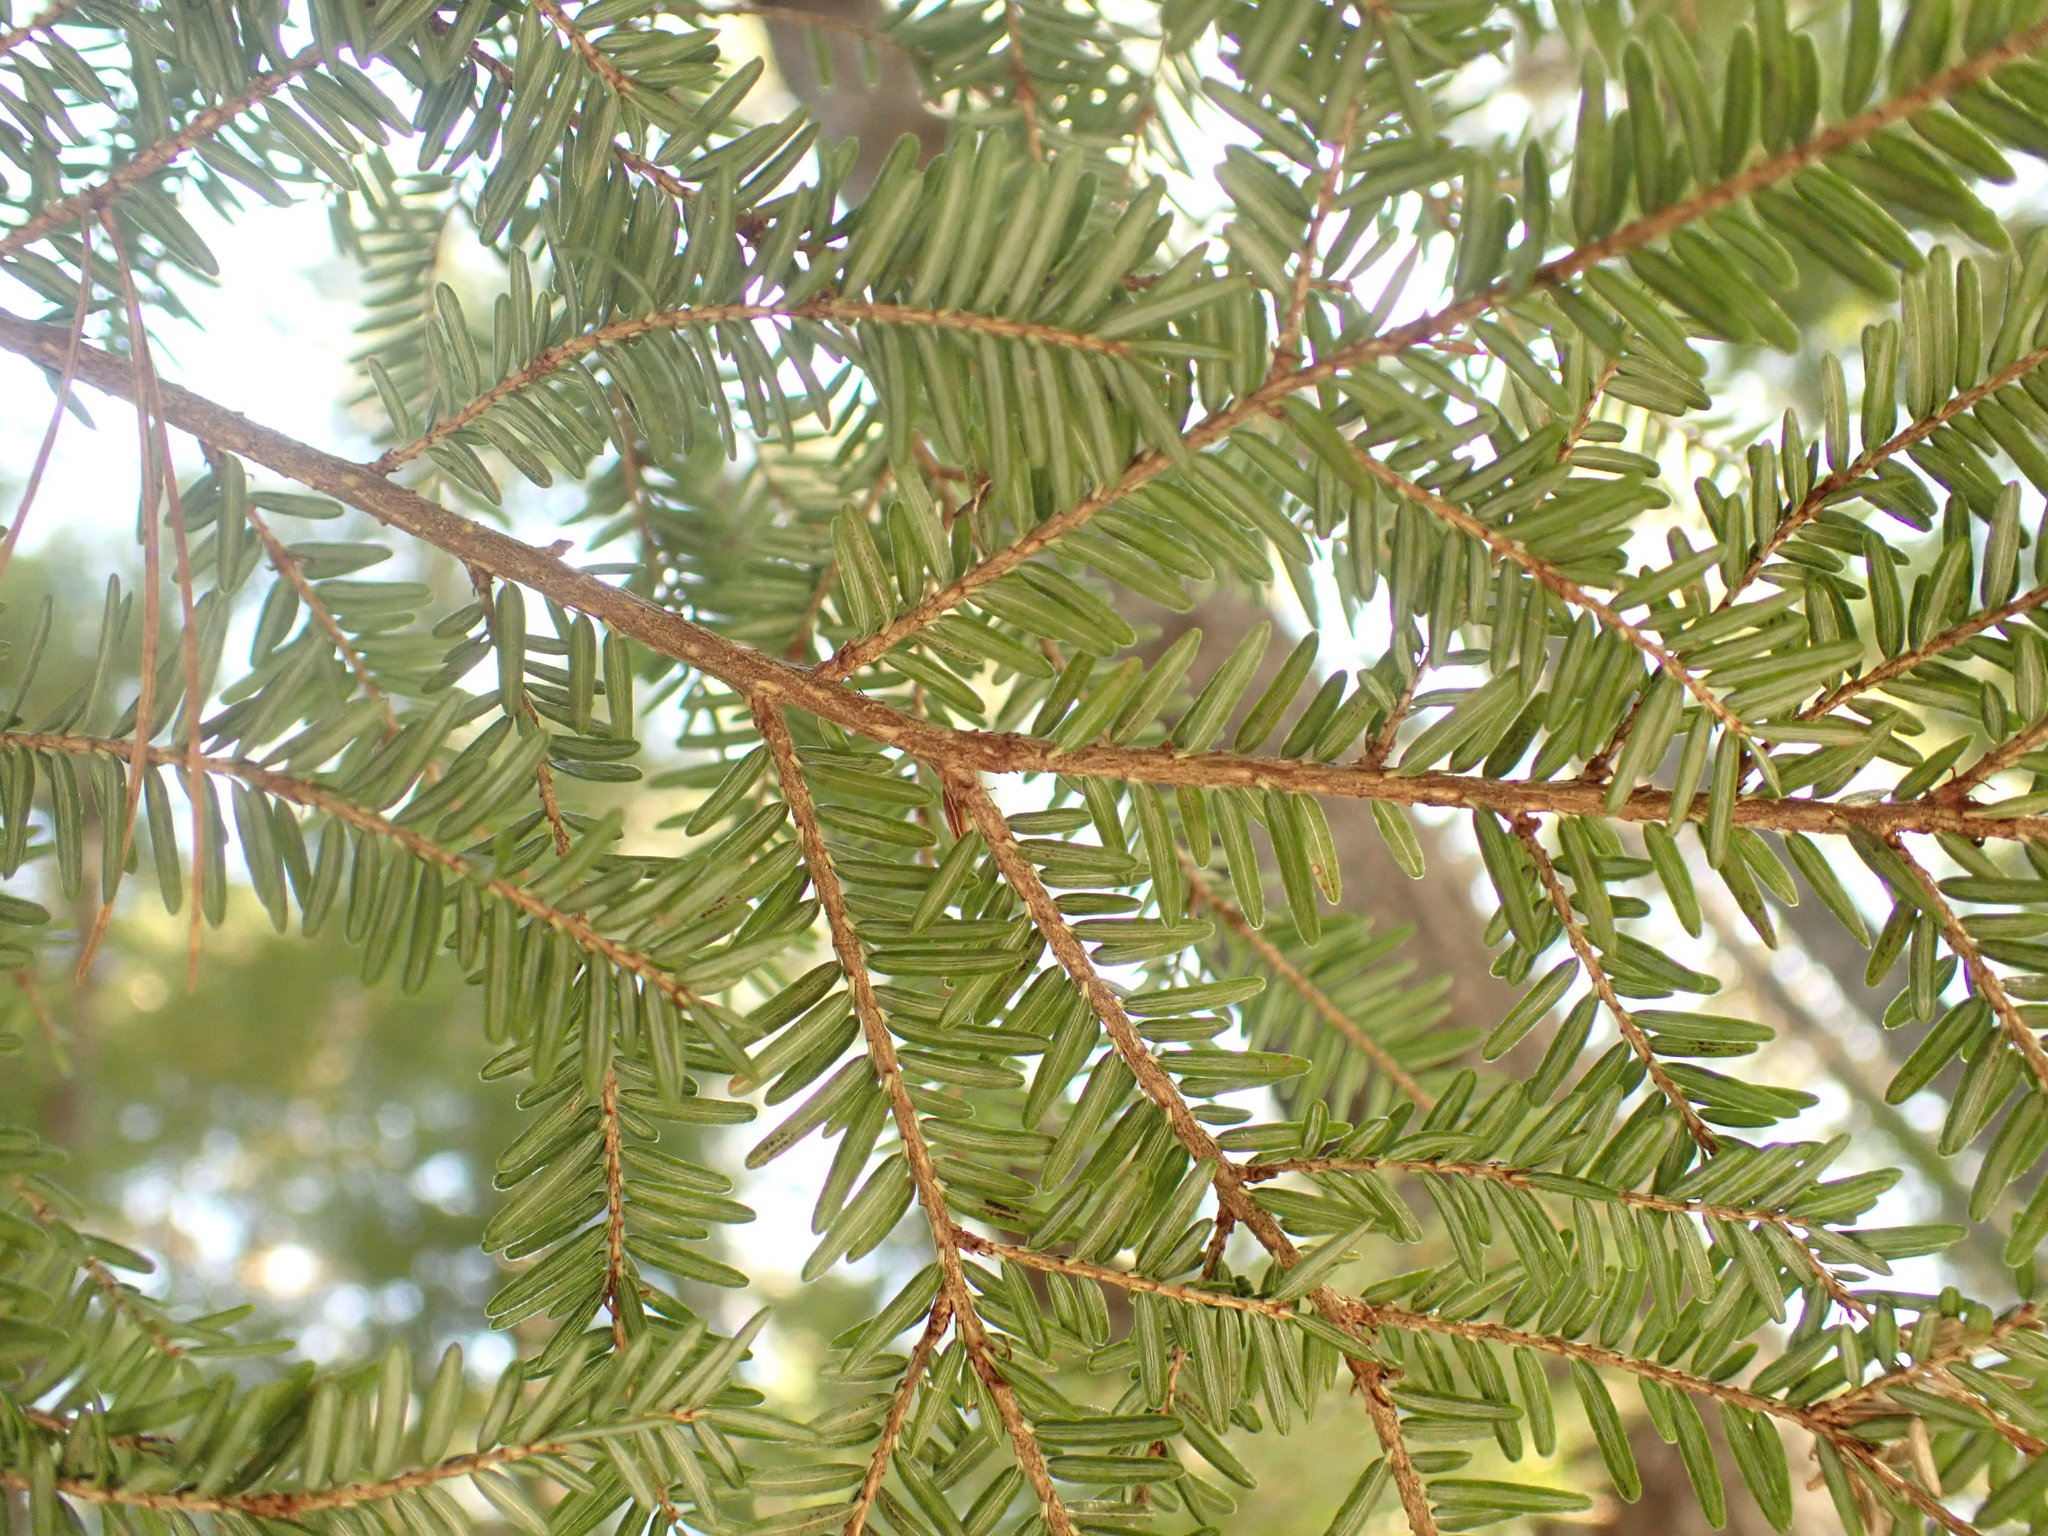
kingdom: Plantae
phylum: Tracheophyta
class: Pinopsida
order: Pinales
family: Pinaceae
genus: Tsuga
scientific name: Tsuga canadensis
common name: Eastern hemlock
